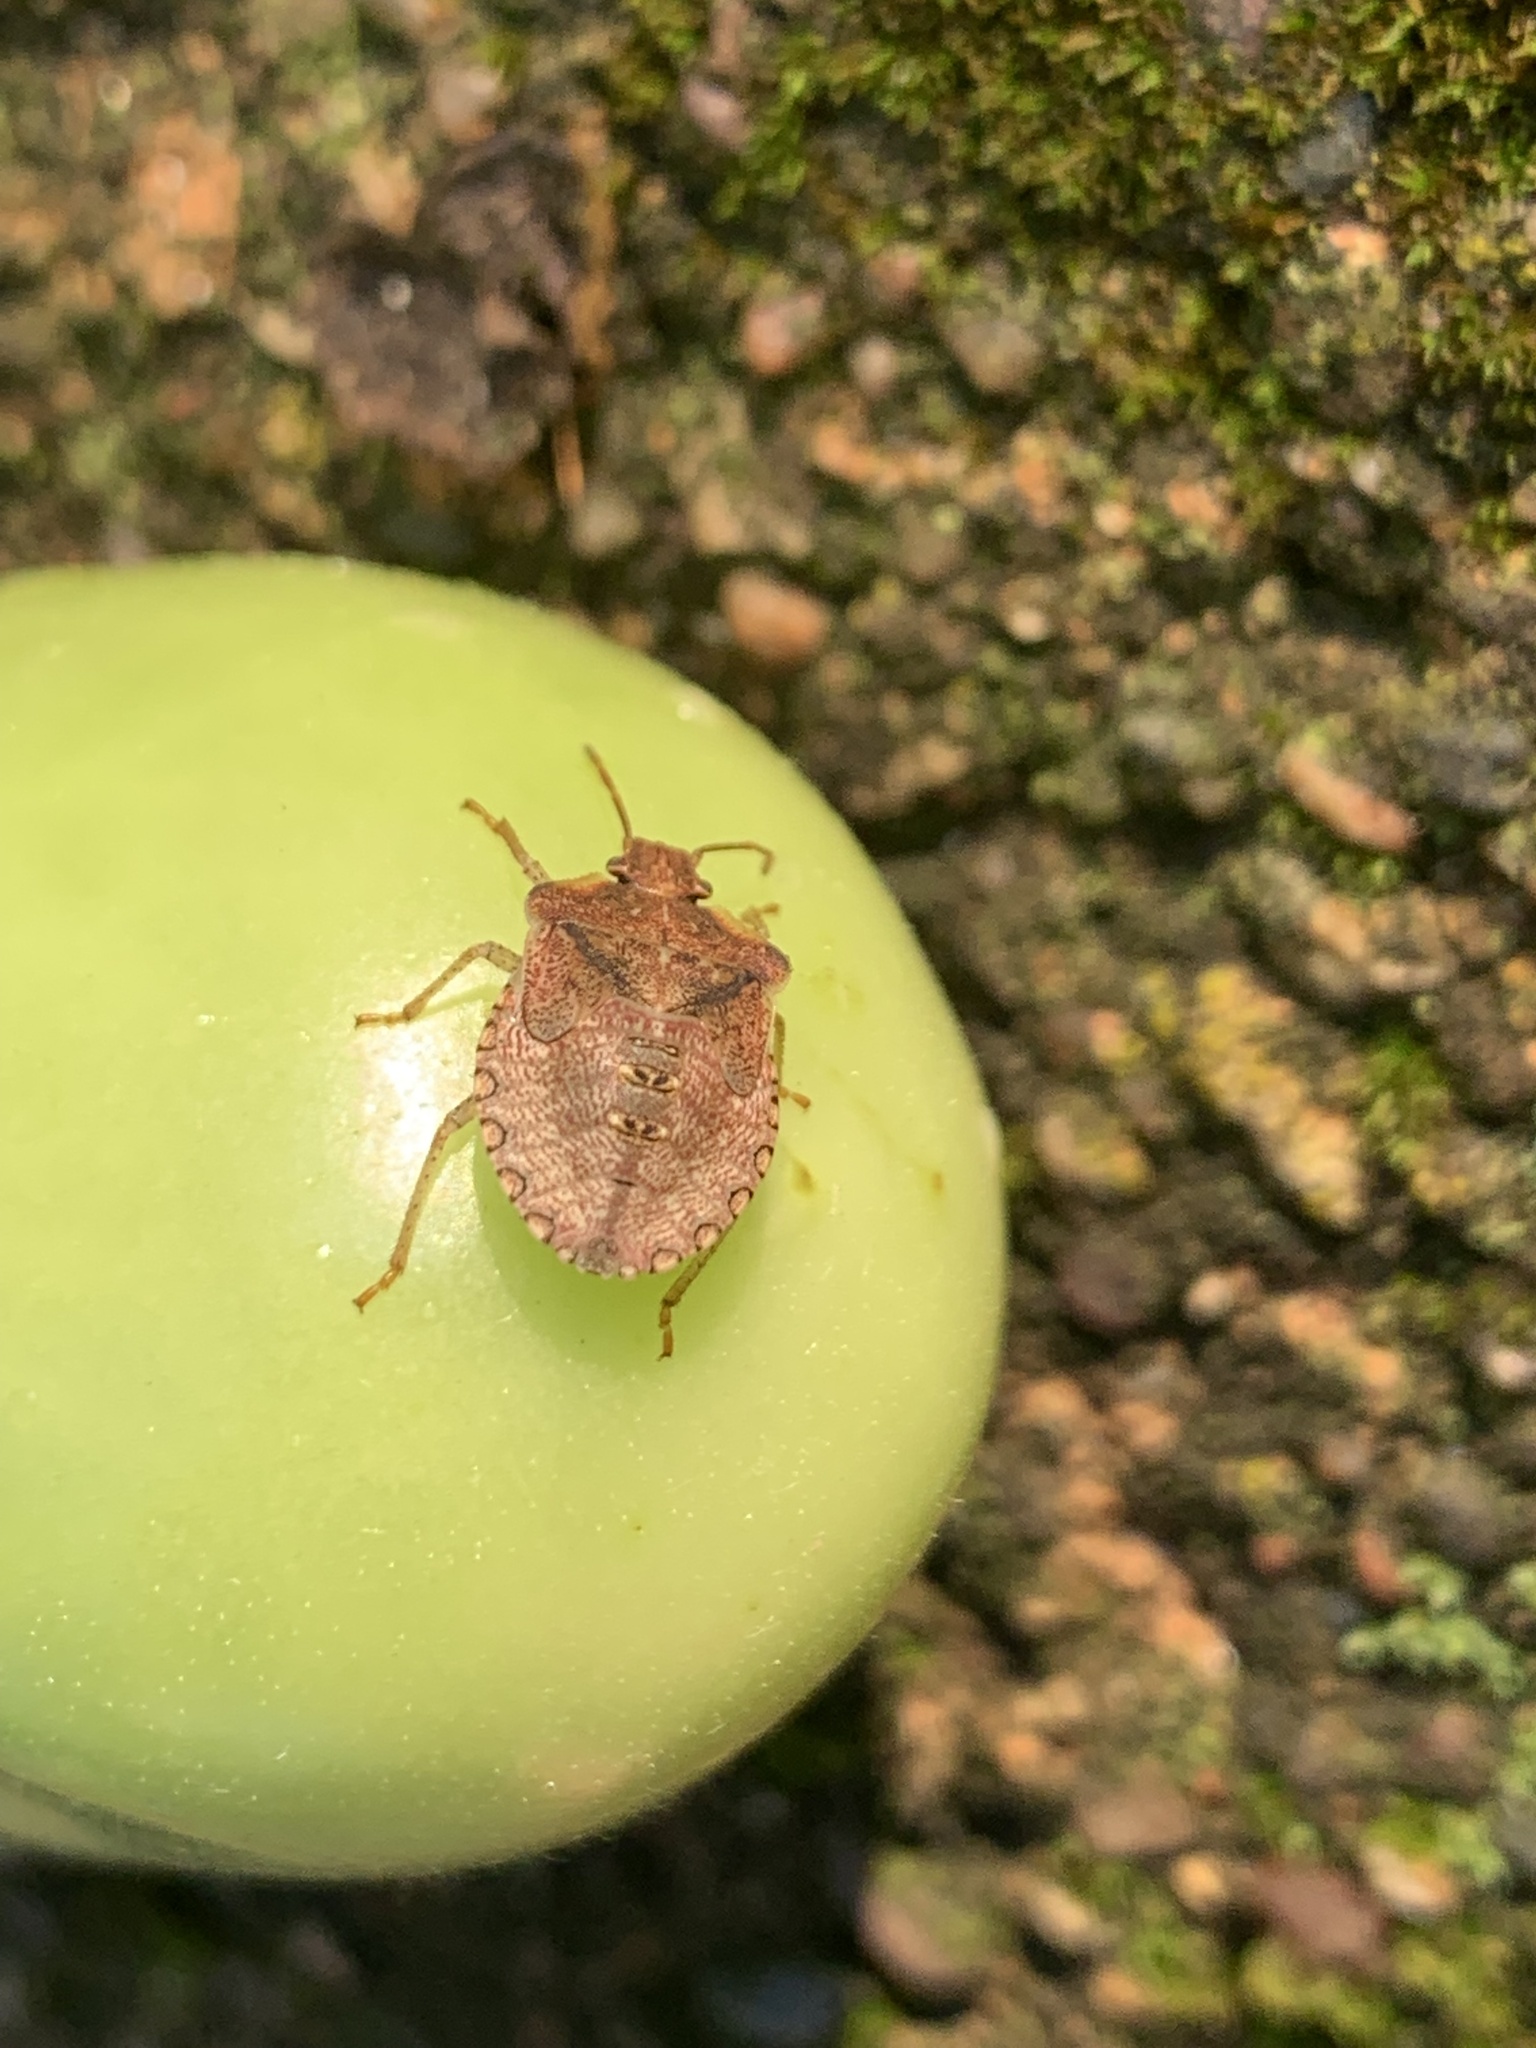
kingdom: Animalia
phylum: Arthropoda
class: Insecta
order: Hemiptera
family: Pentatomidae
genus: Euschistus
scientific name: Euschistus servus
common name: Brown stink bug
